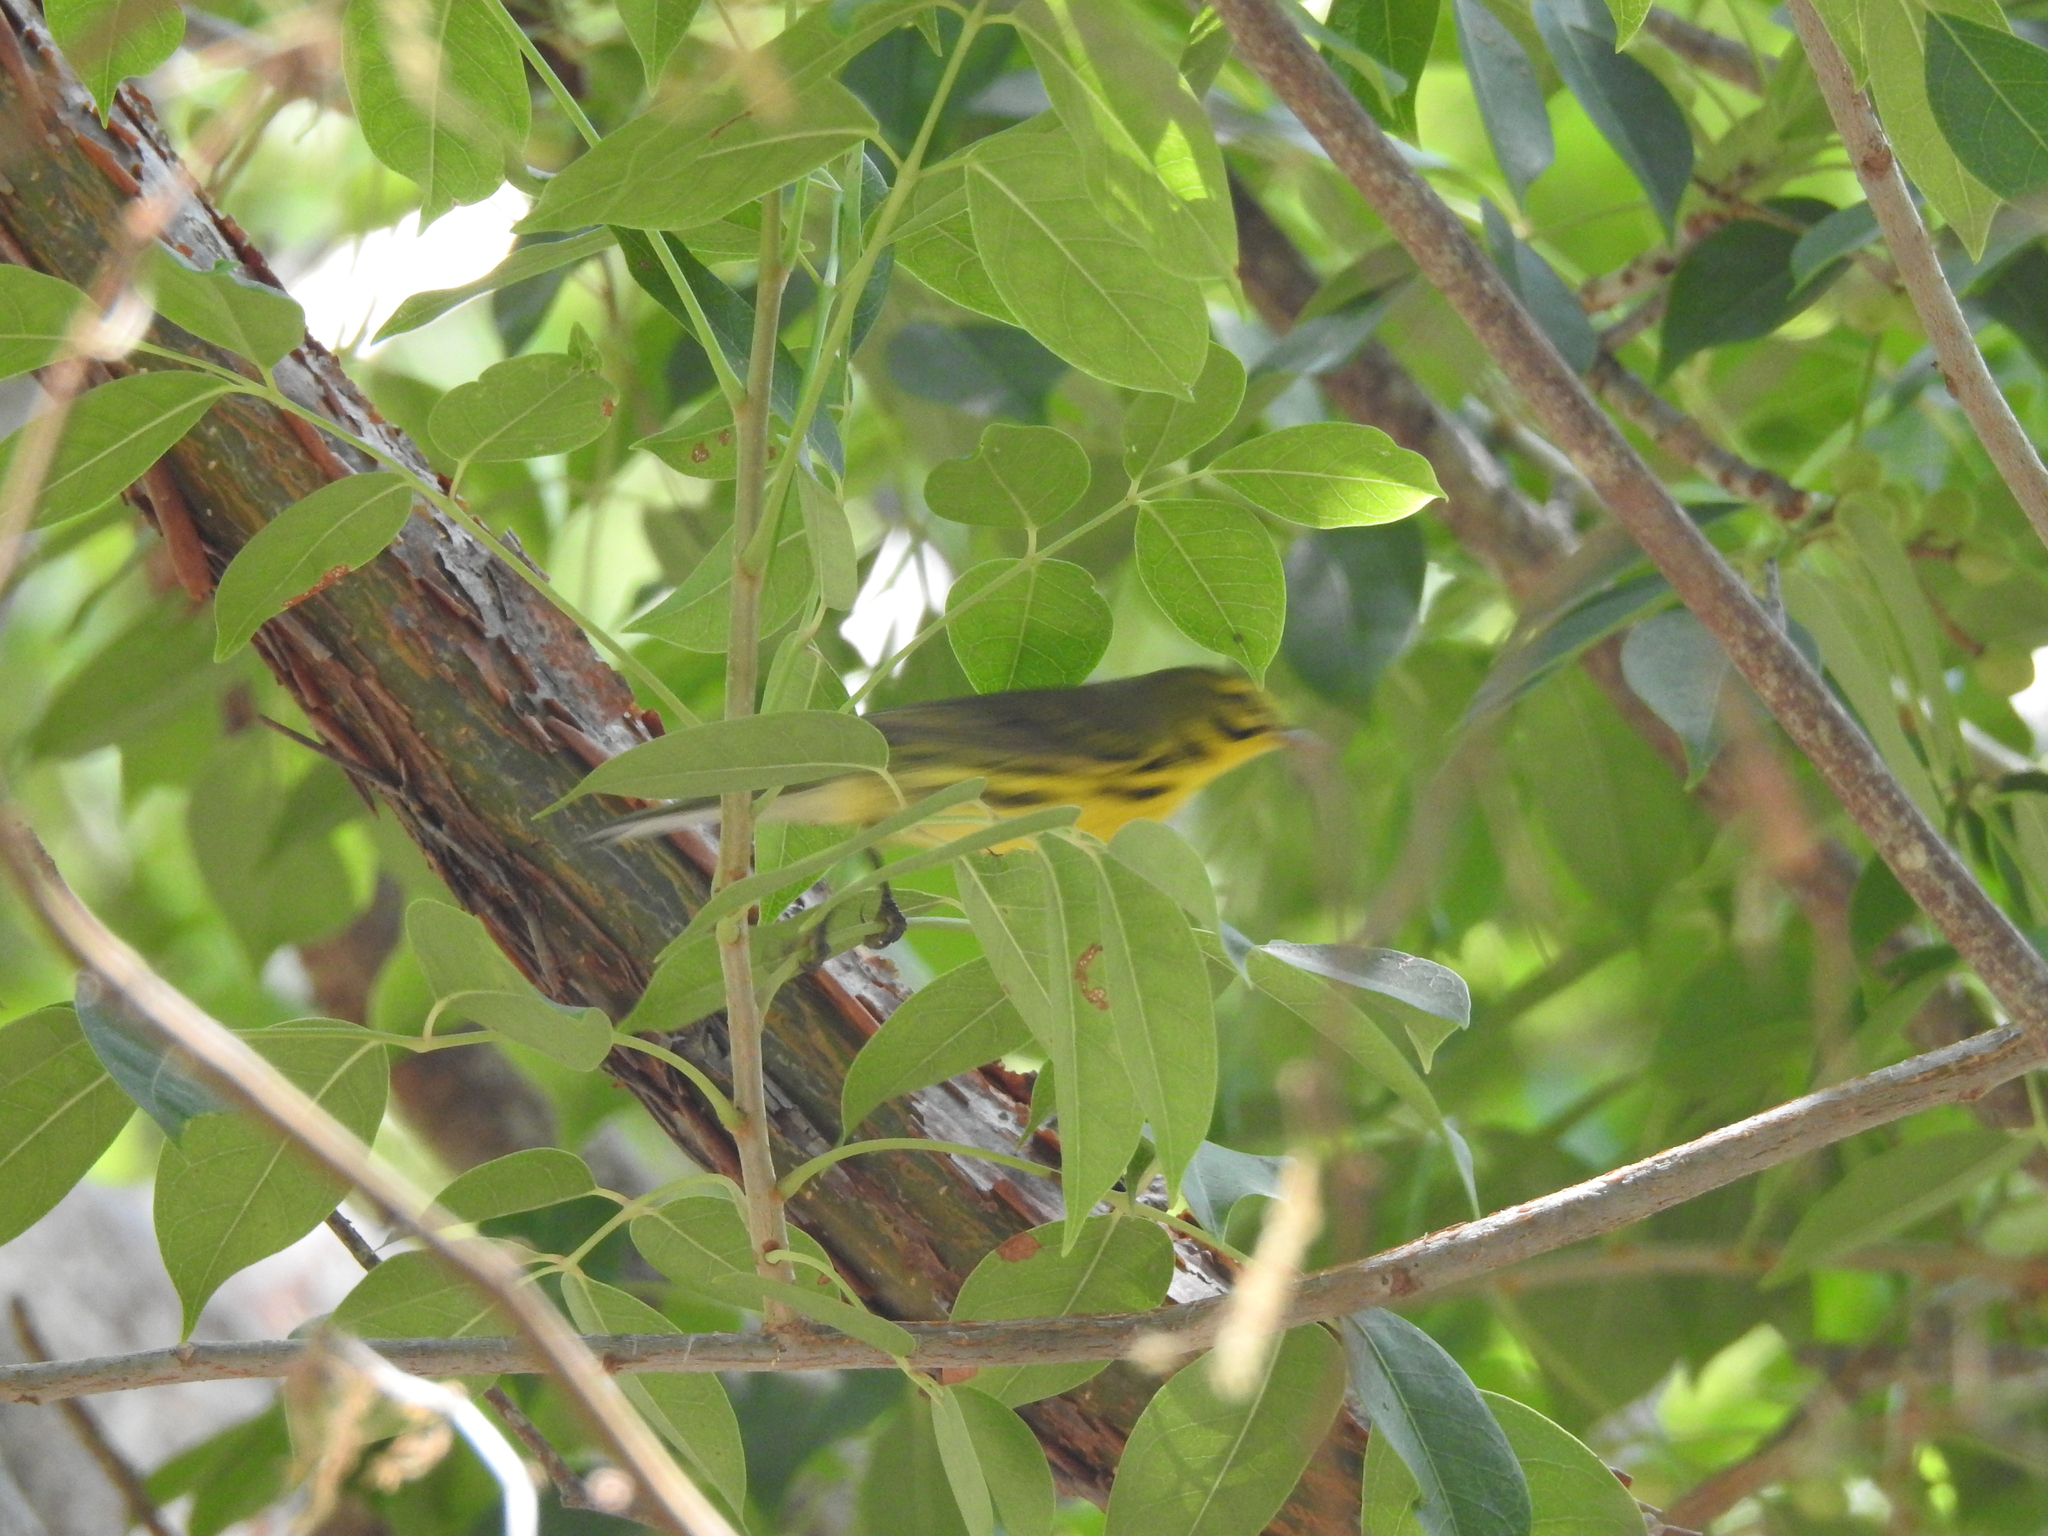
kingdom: Animalia
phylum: Chordata
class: Aves
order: Passeriformes
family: Parulidae
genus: Setophaga
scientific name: Setophaga discolor
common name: Prairie warbler
